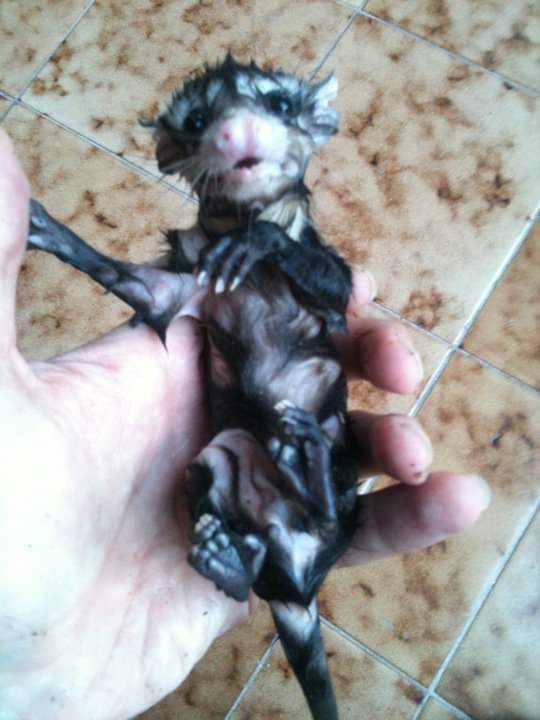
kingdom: Animalia
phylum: Chordata
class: Mammalia
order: Didelphimorphia
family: Didelphidae
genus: Didelphis
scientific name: Didelphis virginiana
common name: Virginia opossum
